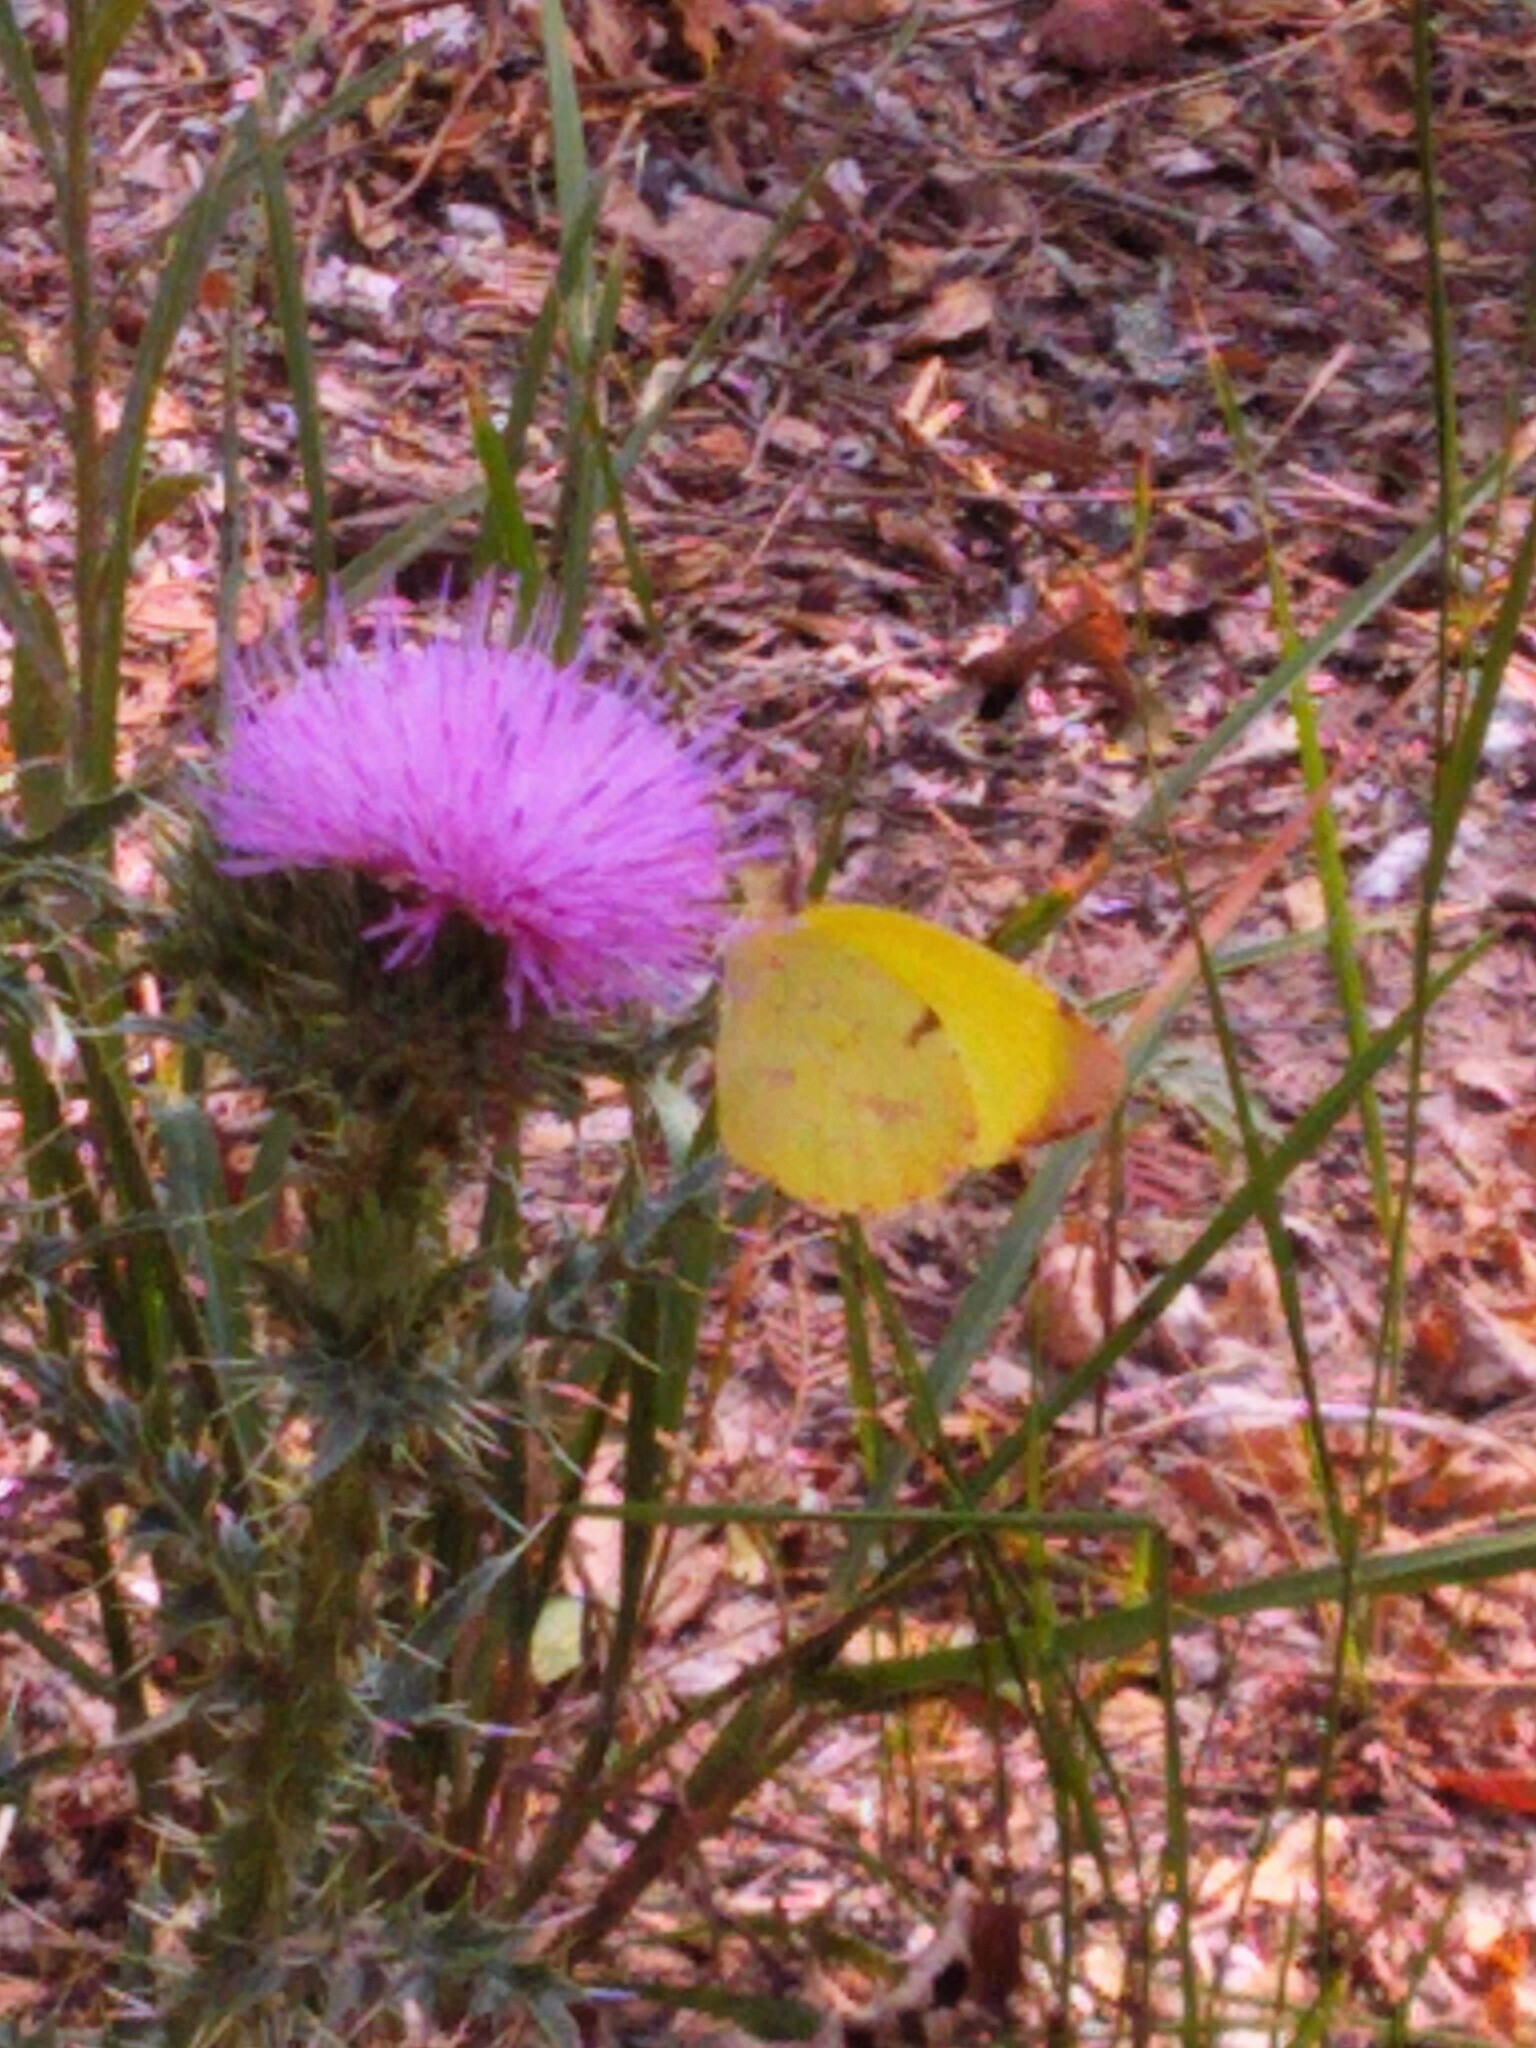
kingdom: Animalia
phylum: Arthropoda
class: Insecta
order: Lepidoptera
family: Pieridae
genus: Teriocolias
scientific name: Teriocolias
